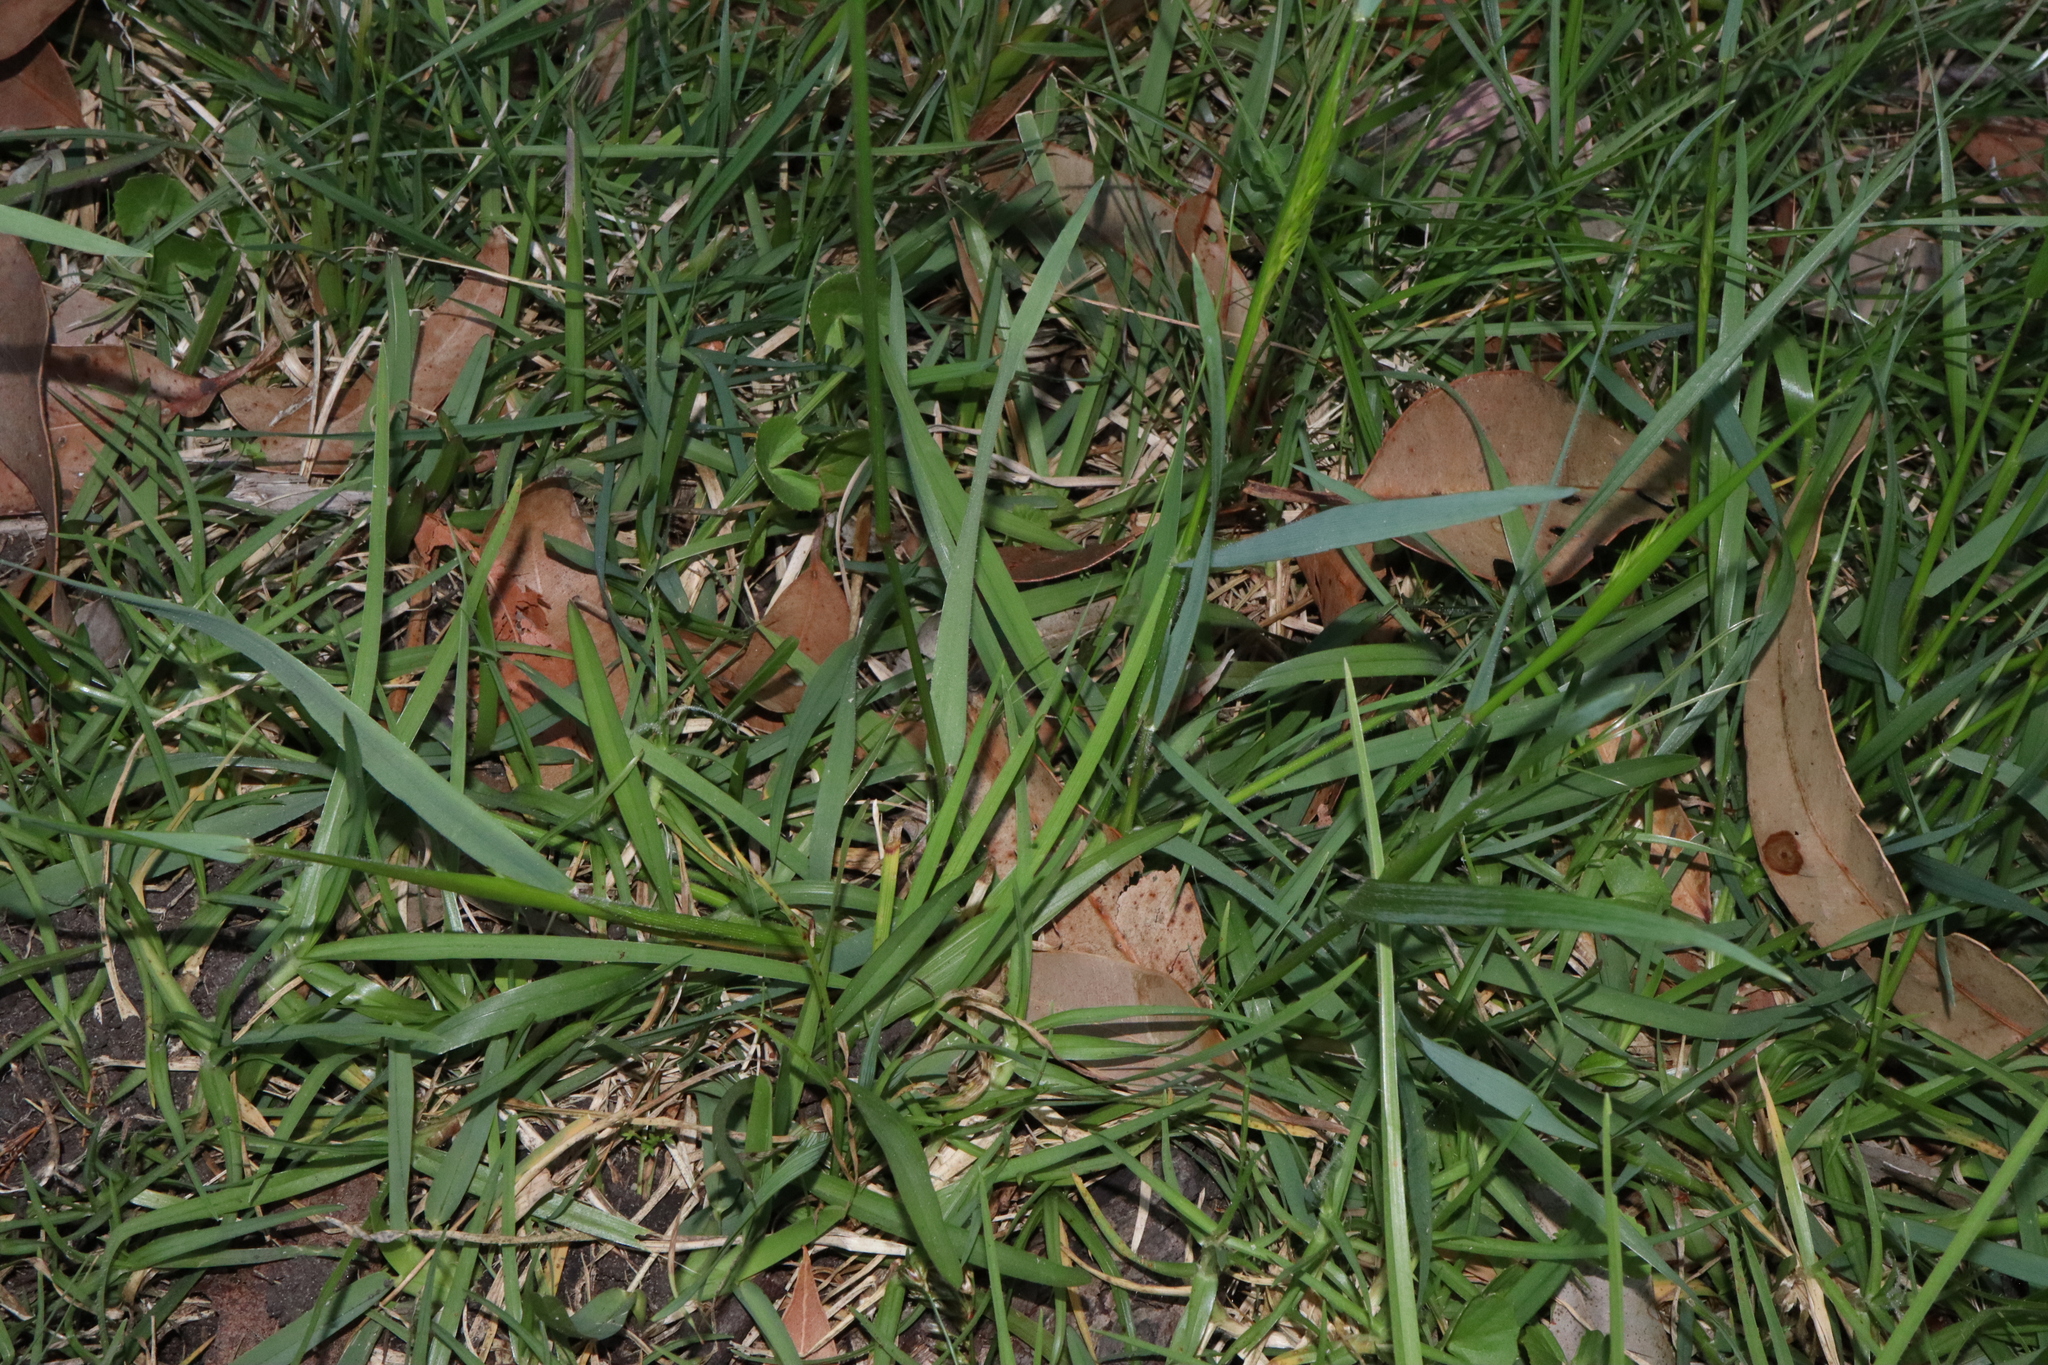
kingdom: Plantae
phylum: Tracheophyta
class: Liliopsida
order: Poales
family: Poaceae
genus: Anthoxanthum
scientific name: Anthoxanthum odoratum
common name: Sweet vernalgrass
